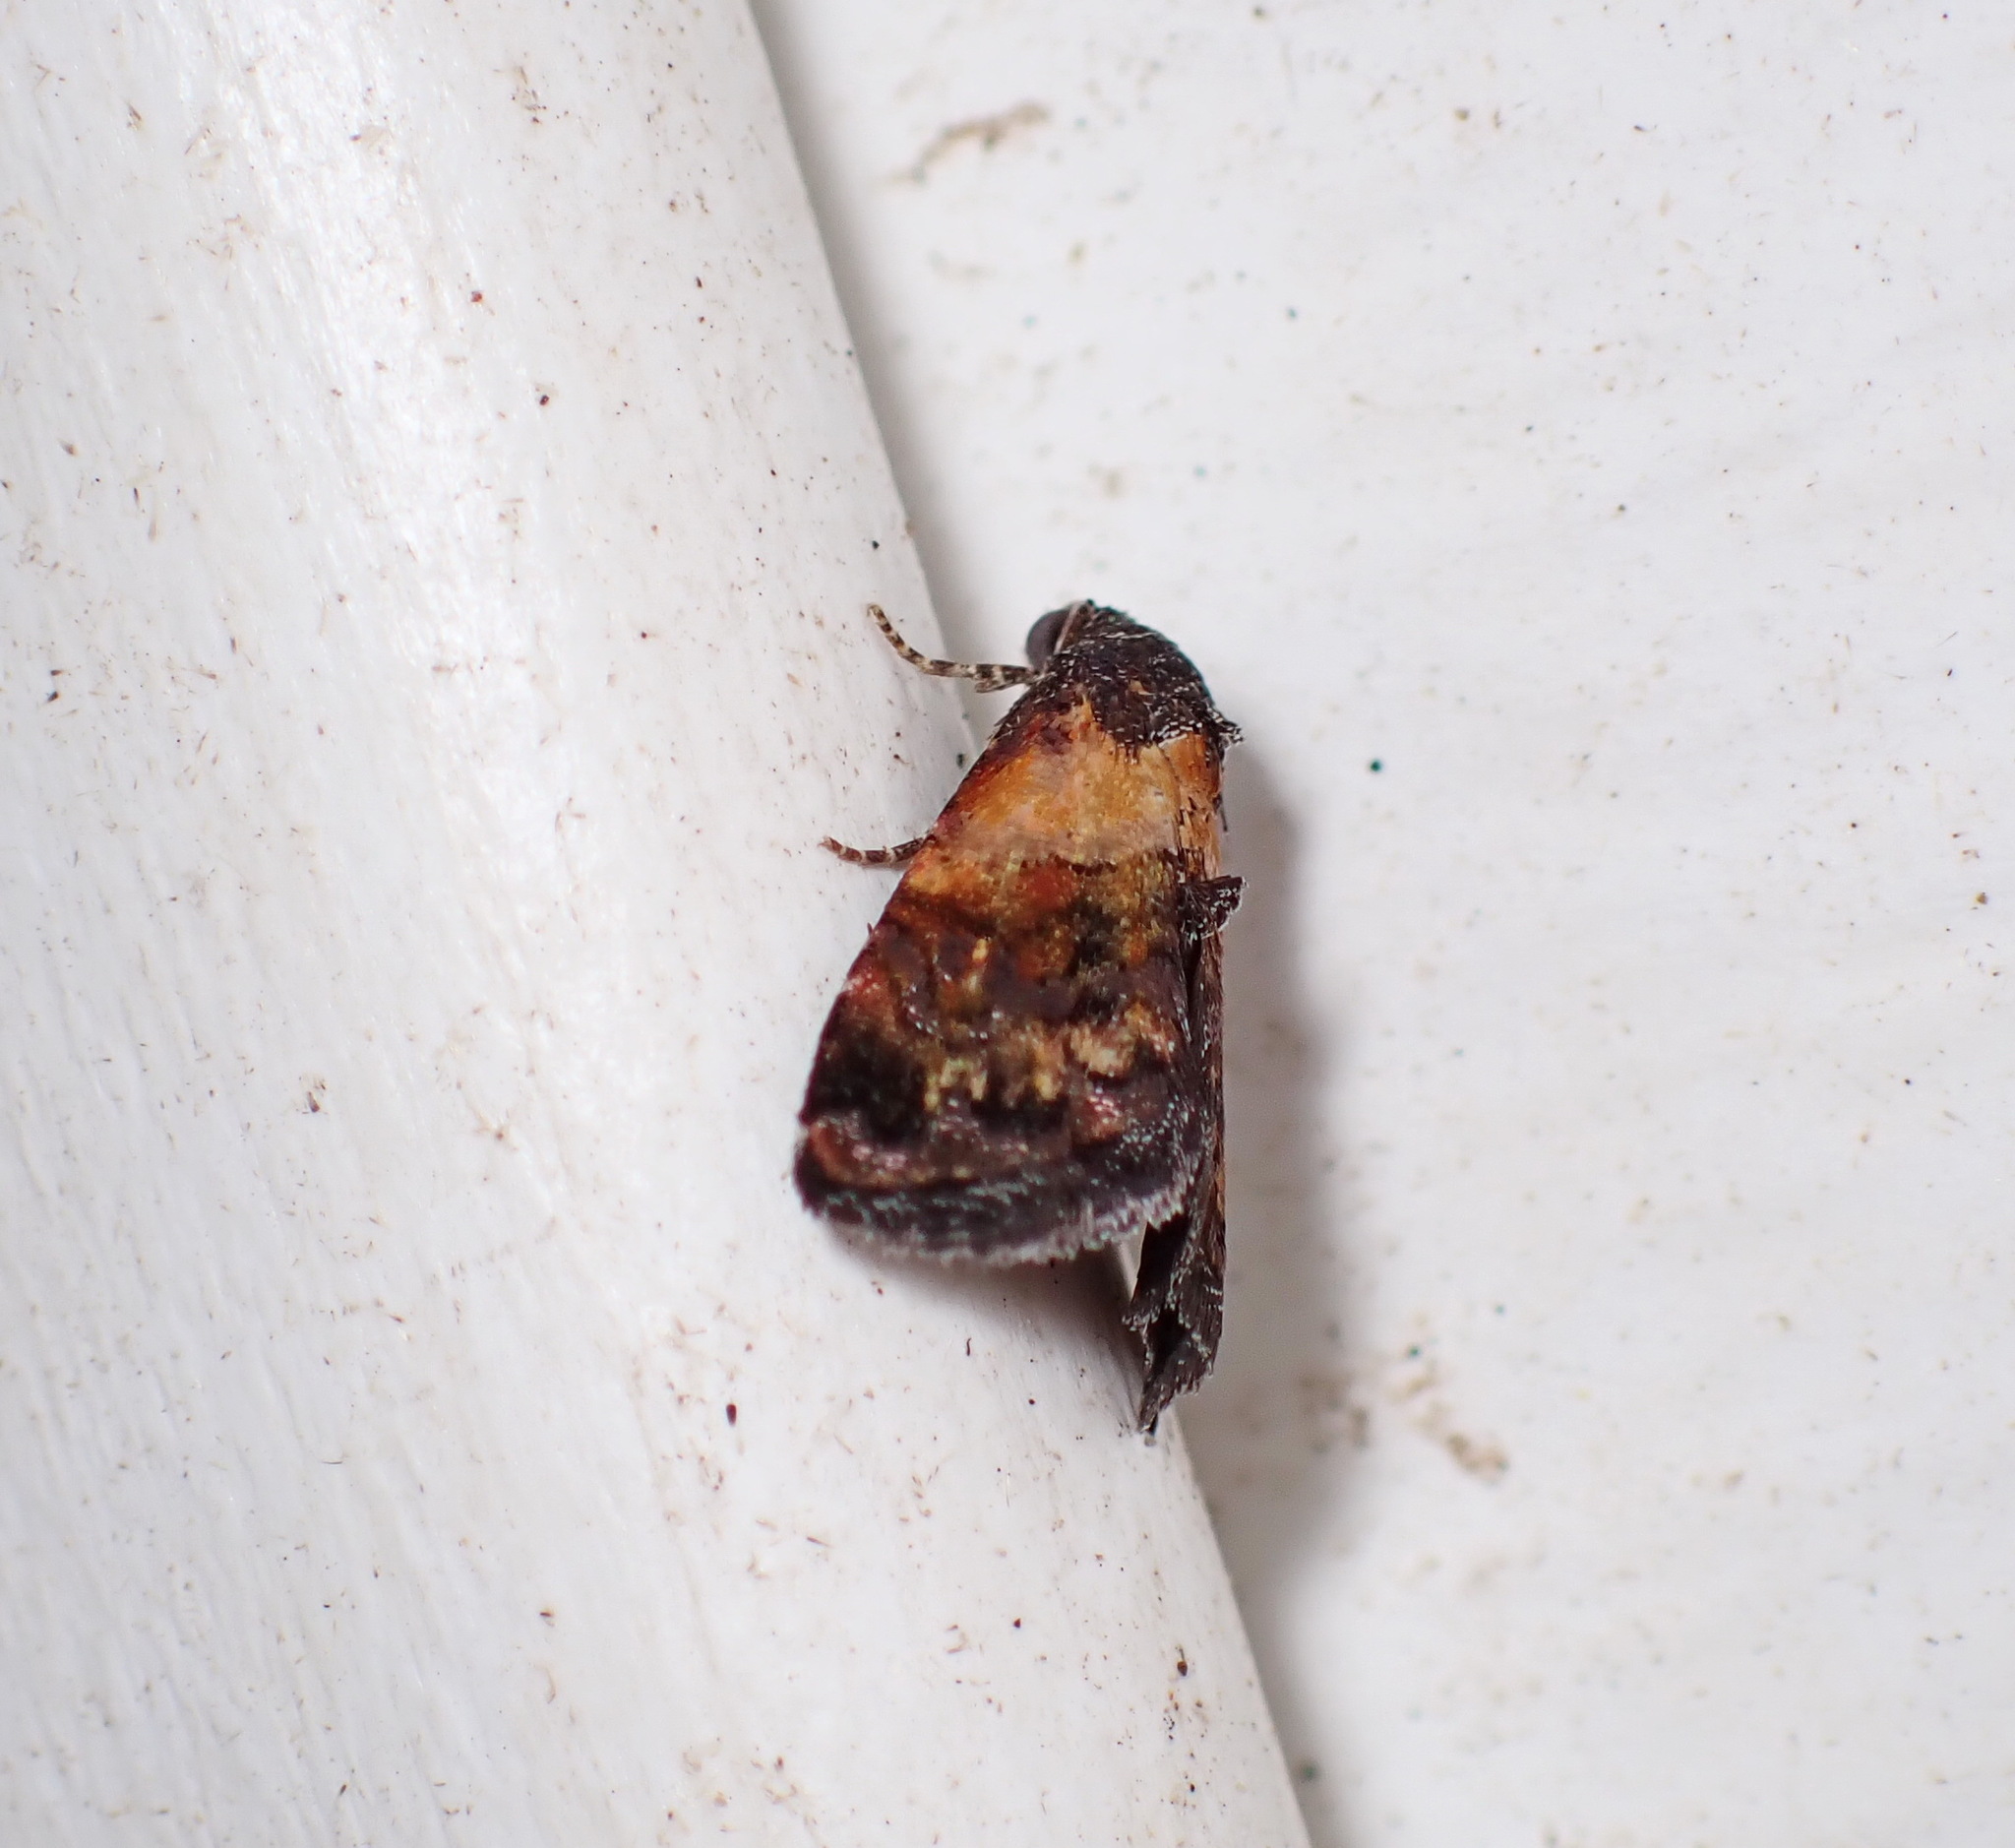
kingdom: Animalia
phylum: Arthropoda
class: Insecta
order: Lepidoptera
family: Noctuidae
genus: Tripudia
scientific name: Tripudia flavofasciata
